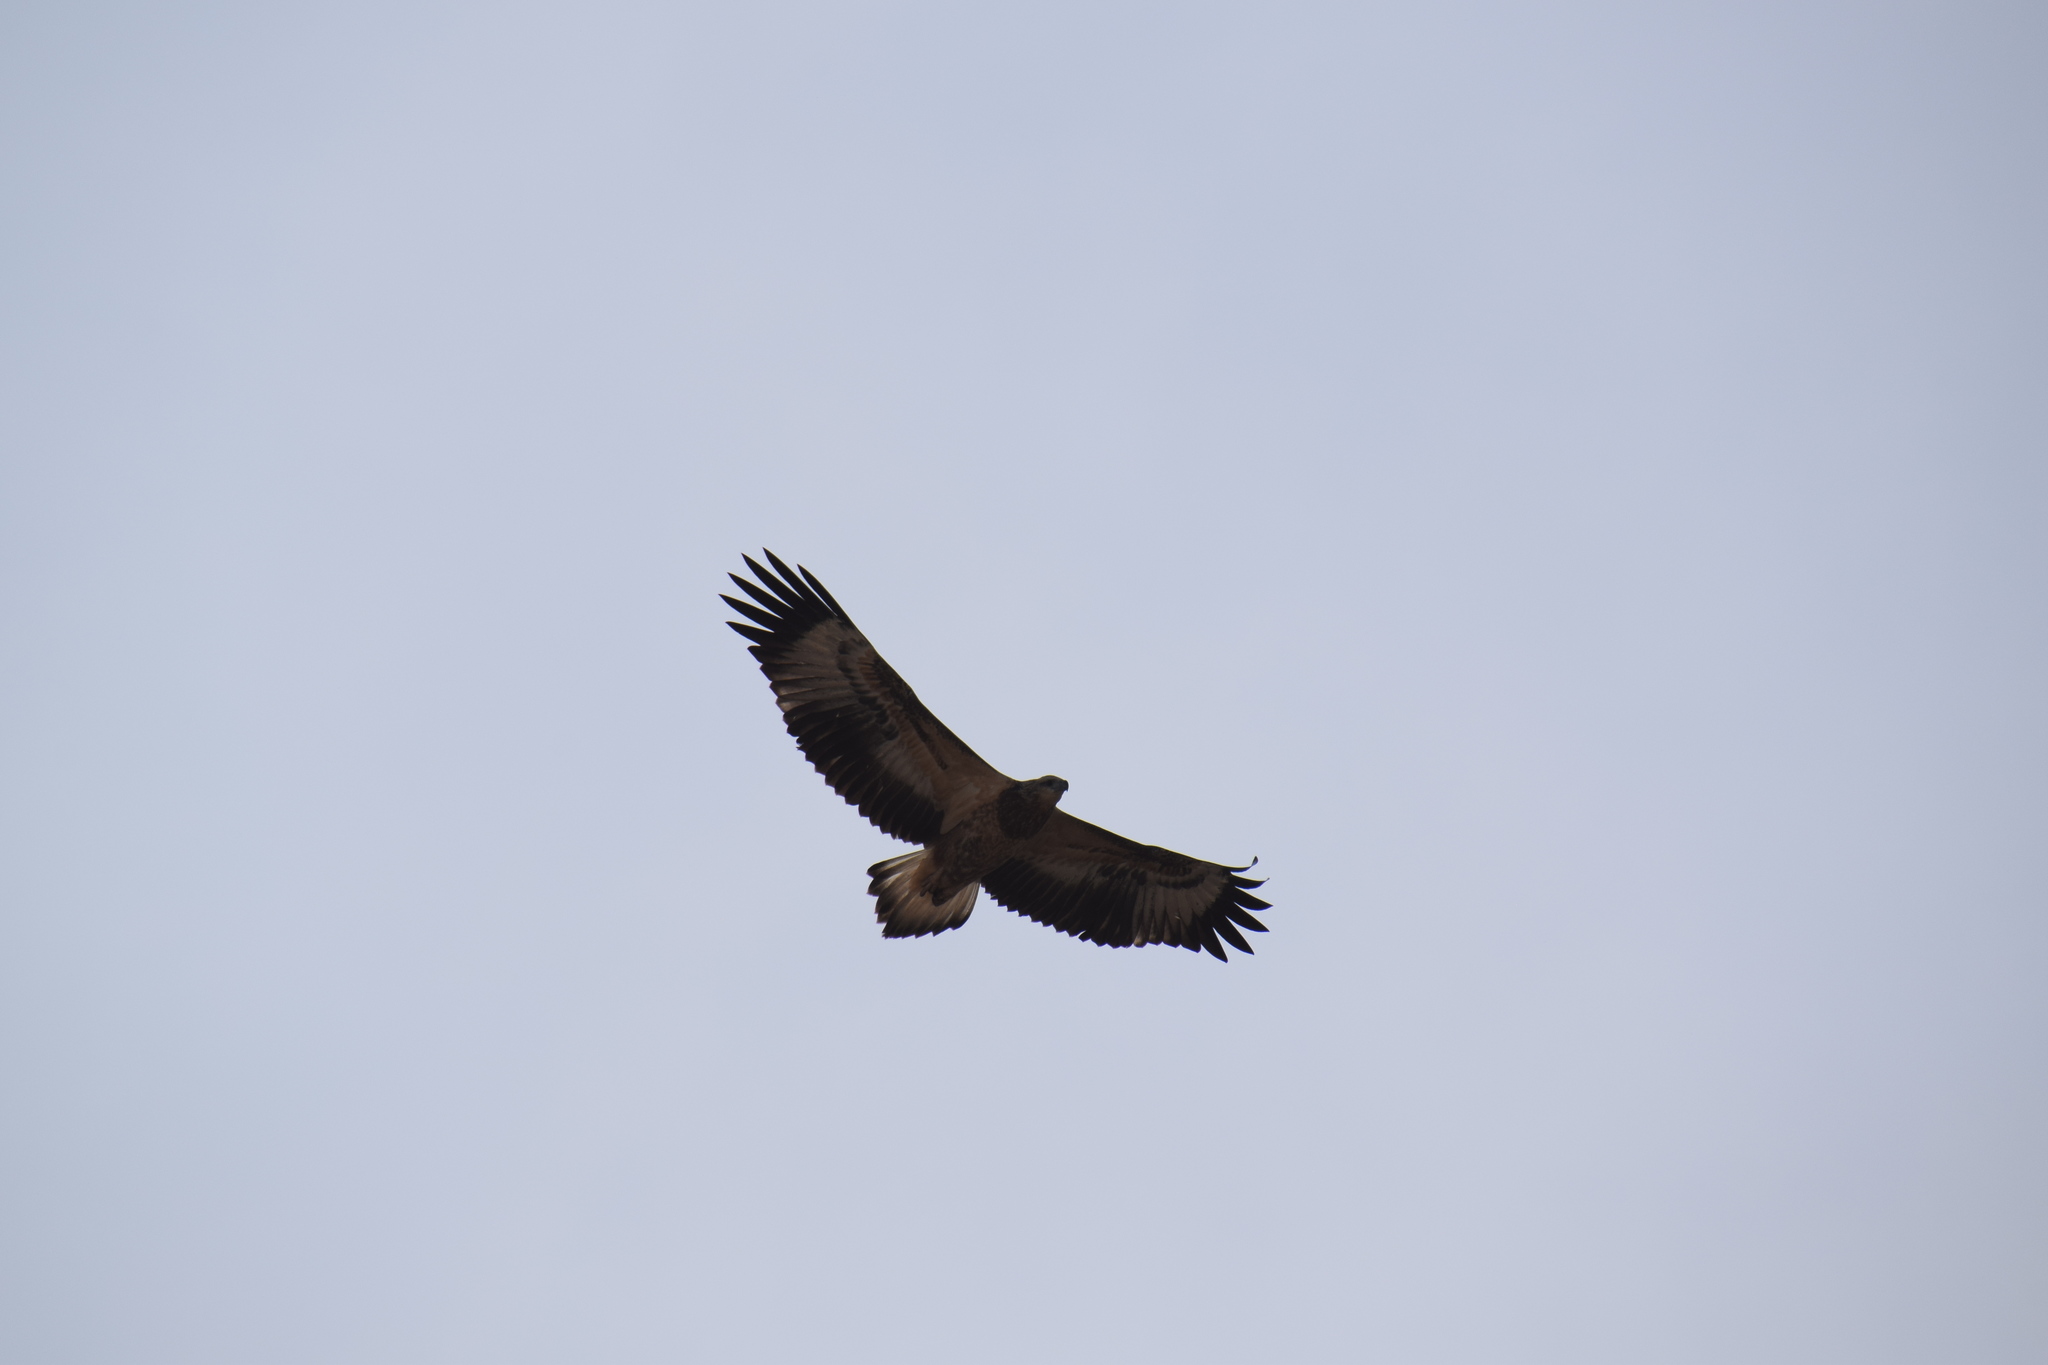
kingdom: Animalia
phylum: Chordata
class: Aves
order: Accipitriformes
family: Accipitridae
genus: Haliaeetus
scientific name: Haliaeetus leucogaster
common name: White-bellied sea eagle
